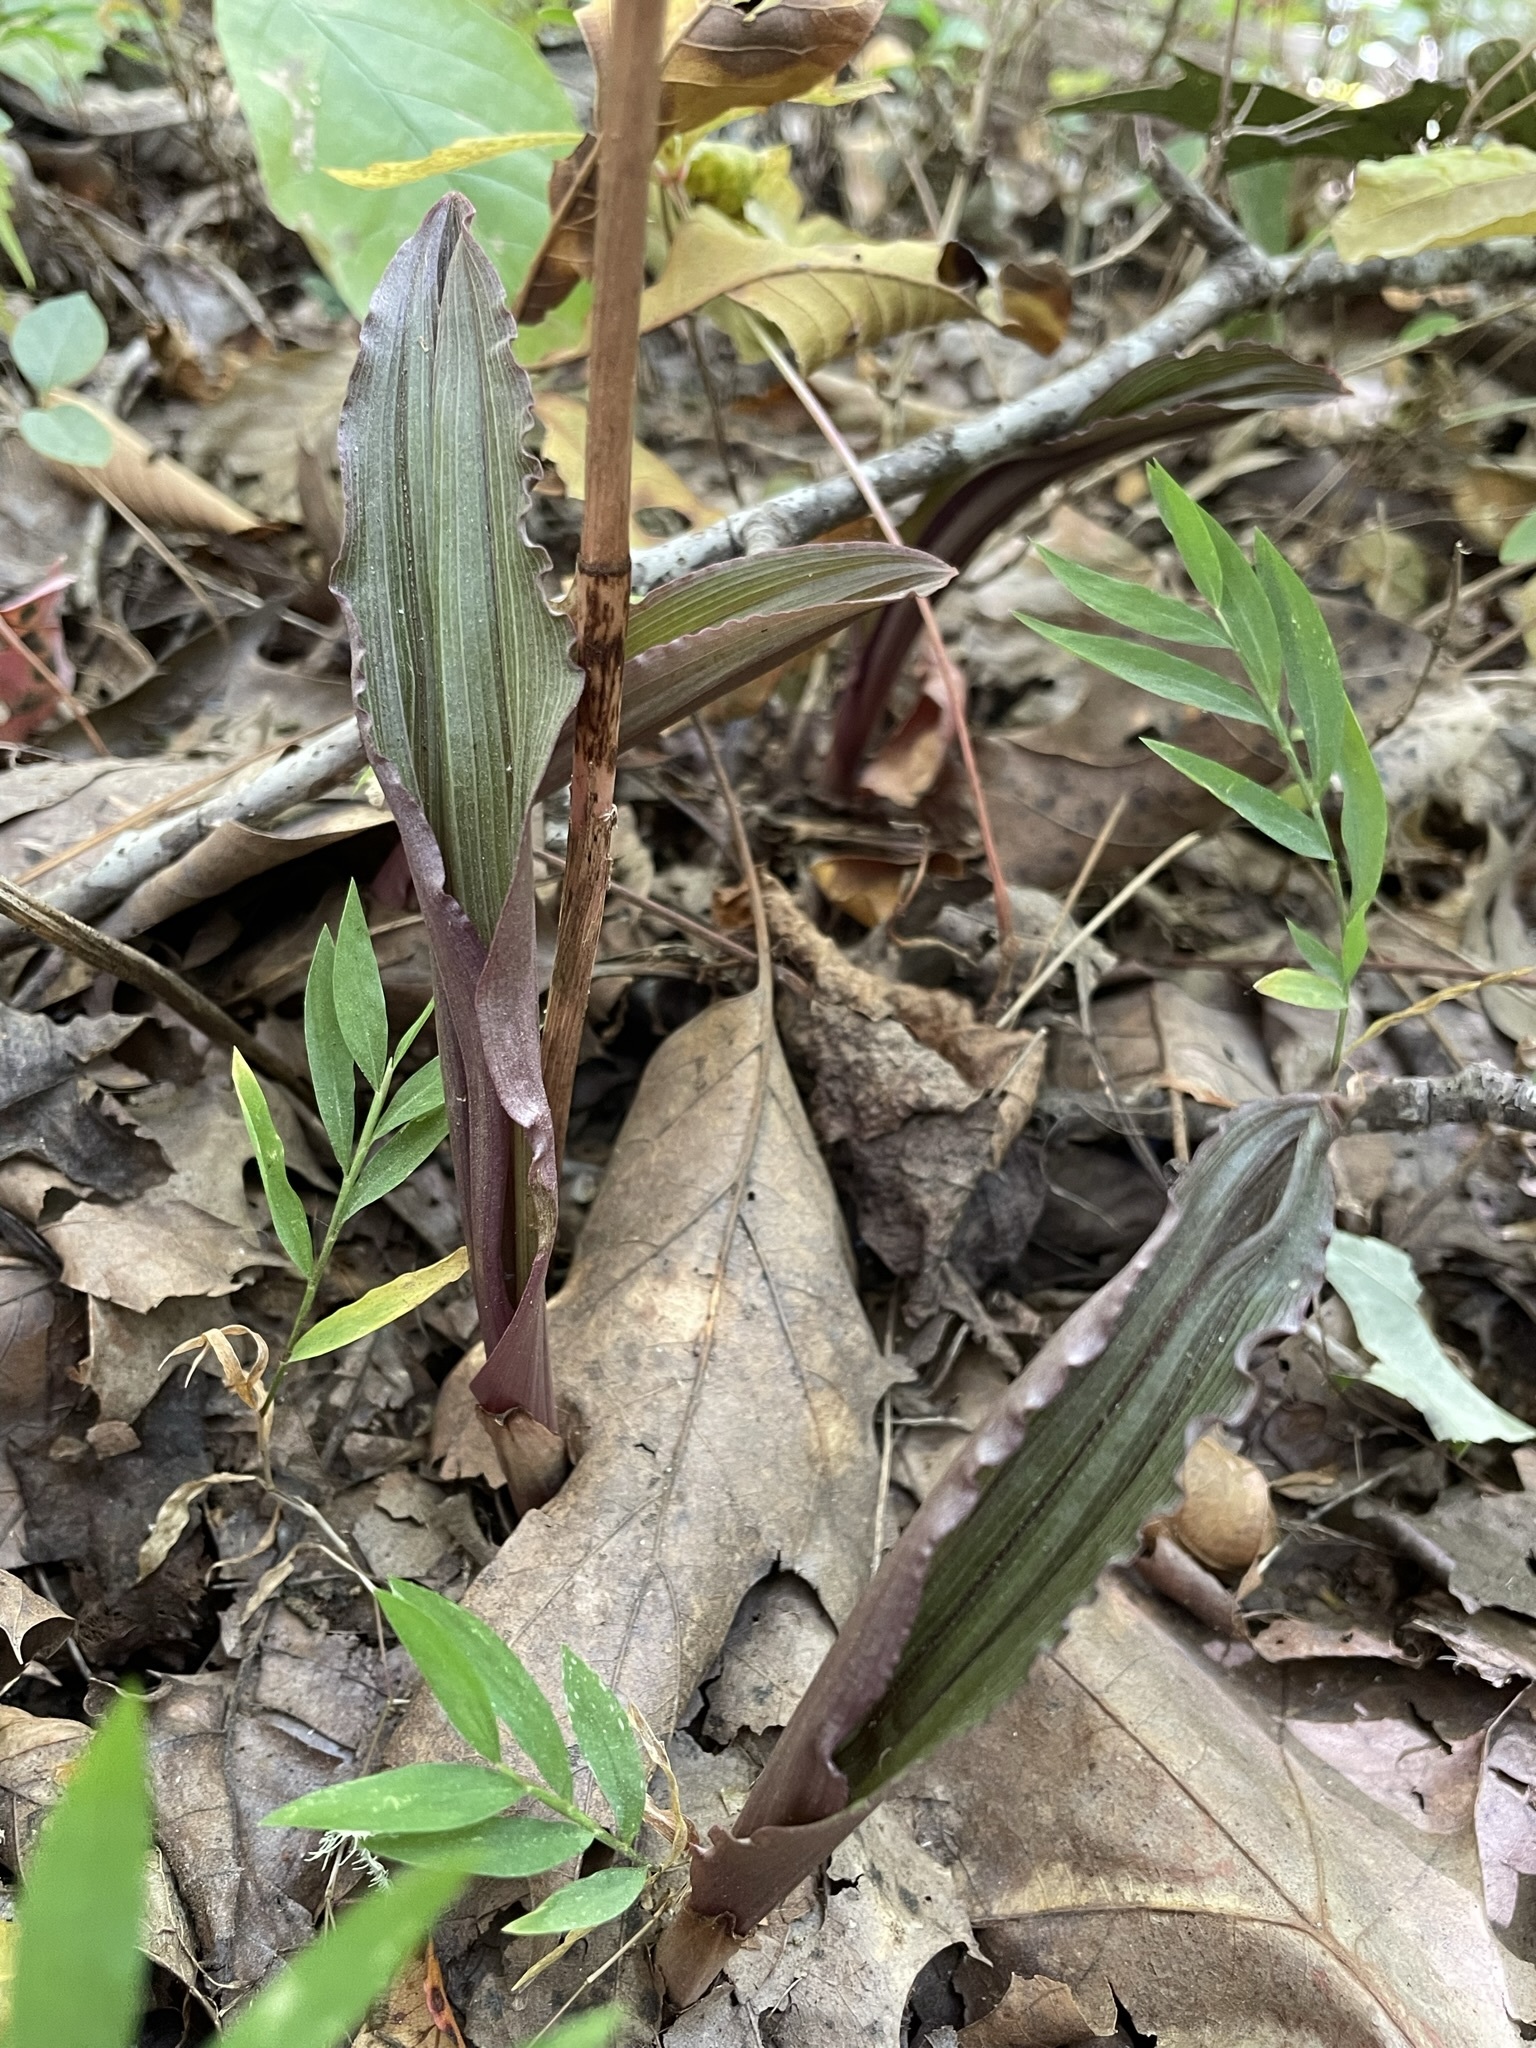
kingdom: Plantae
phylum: Tracheophyta
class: Liliopsida
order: Asparagales
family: Orchidaceae
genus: Aplectrum
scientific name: Aplectrum hyemale
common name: Adam-and-eve
